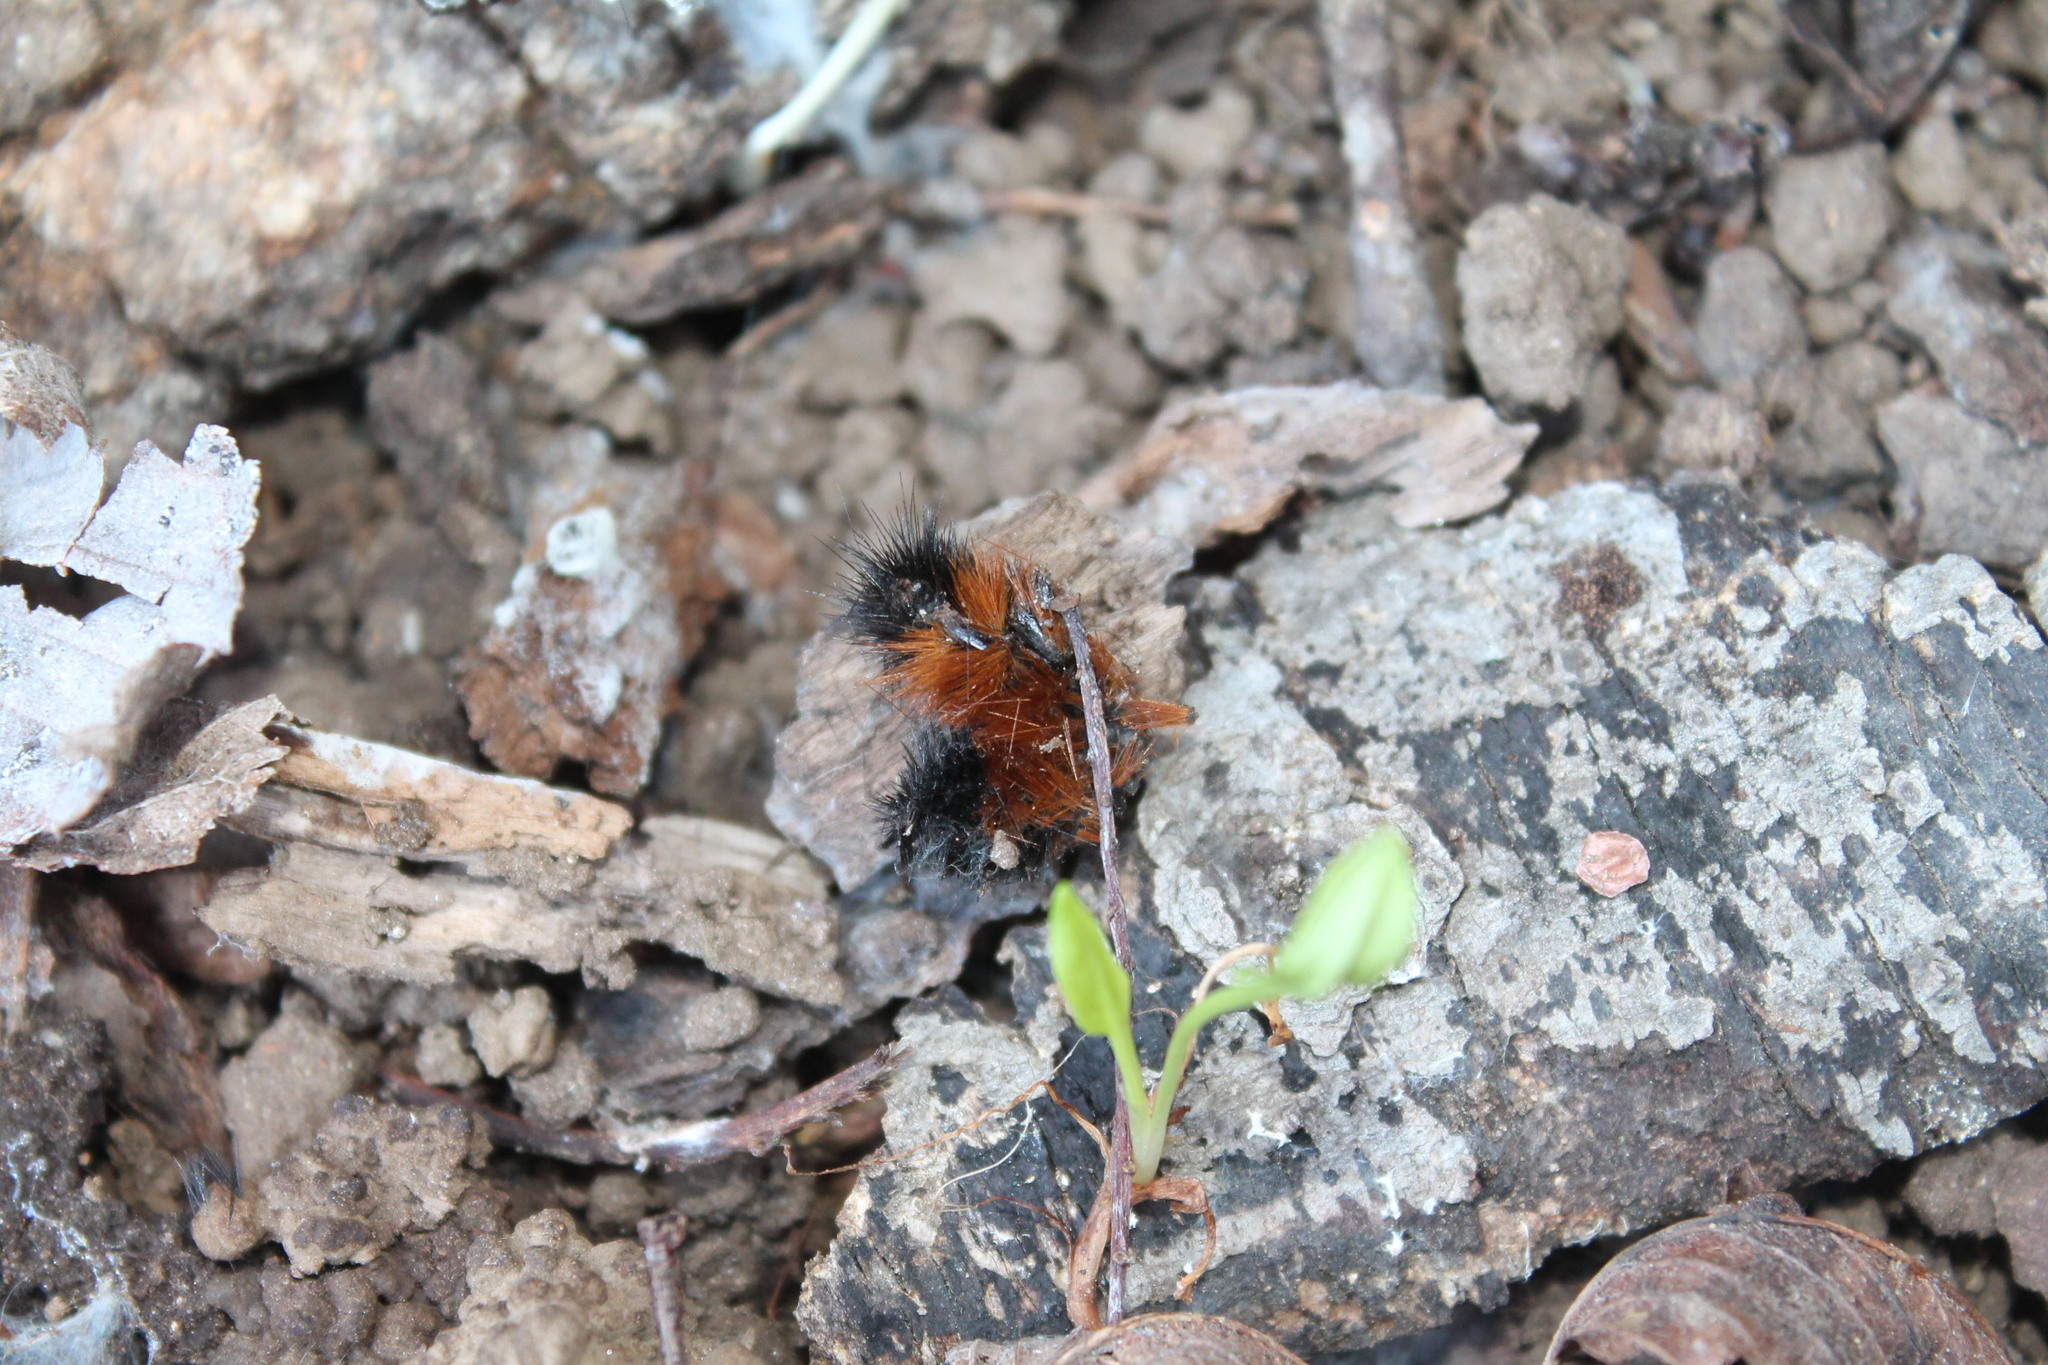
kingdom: Animalia
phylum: Arthropoda
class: Insecta
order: Lepidoptera
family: Erebidae
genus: Pyrrharctia
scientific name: Pyrrharctia isabella
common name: Isabella tiger moth
